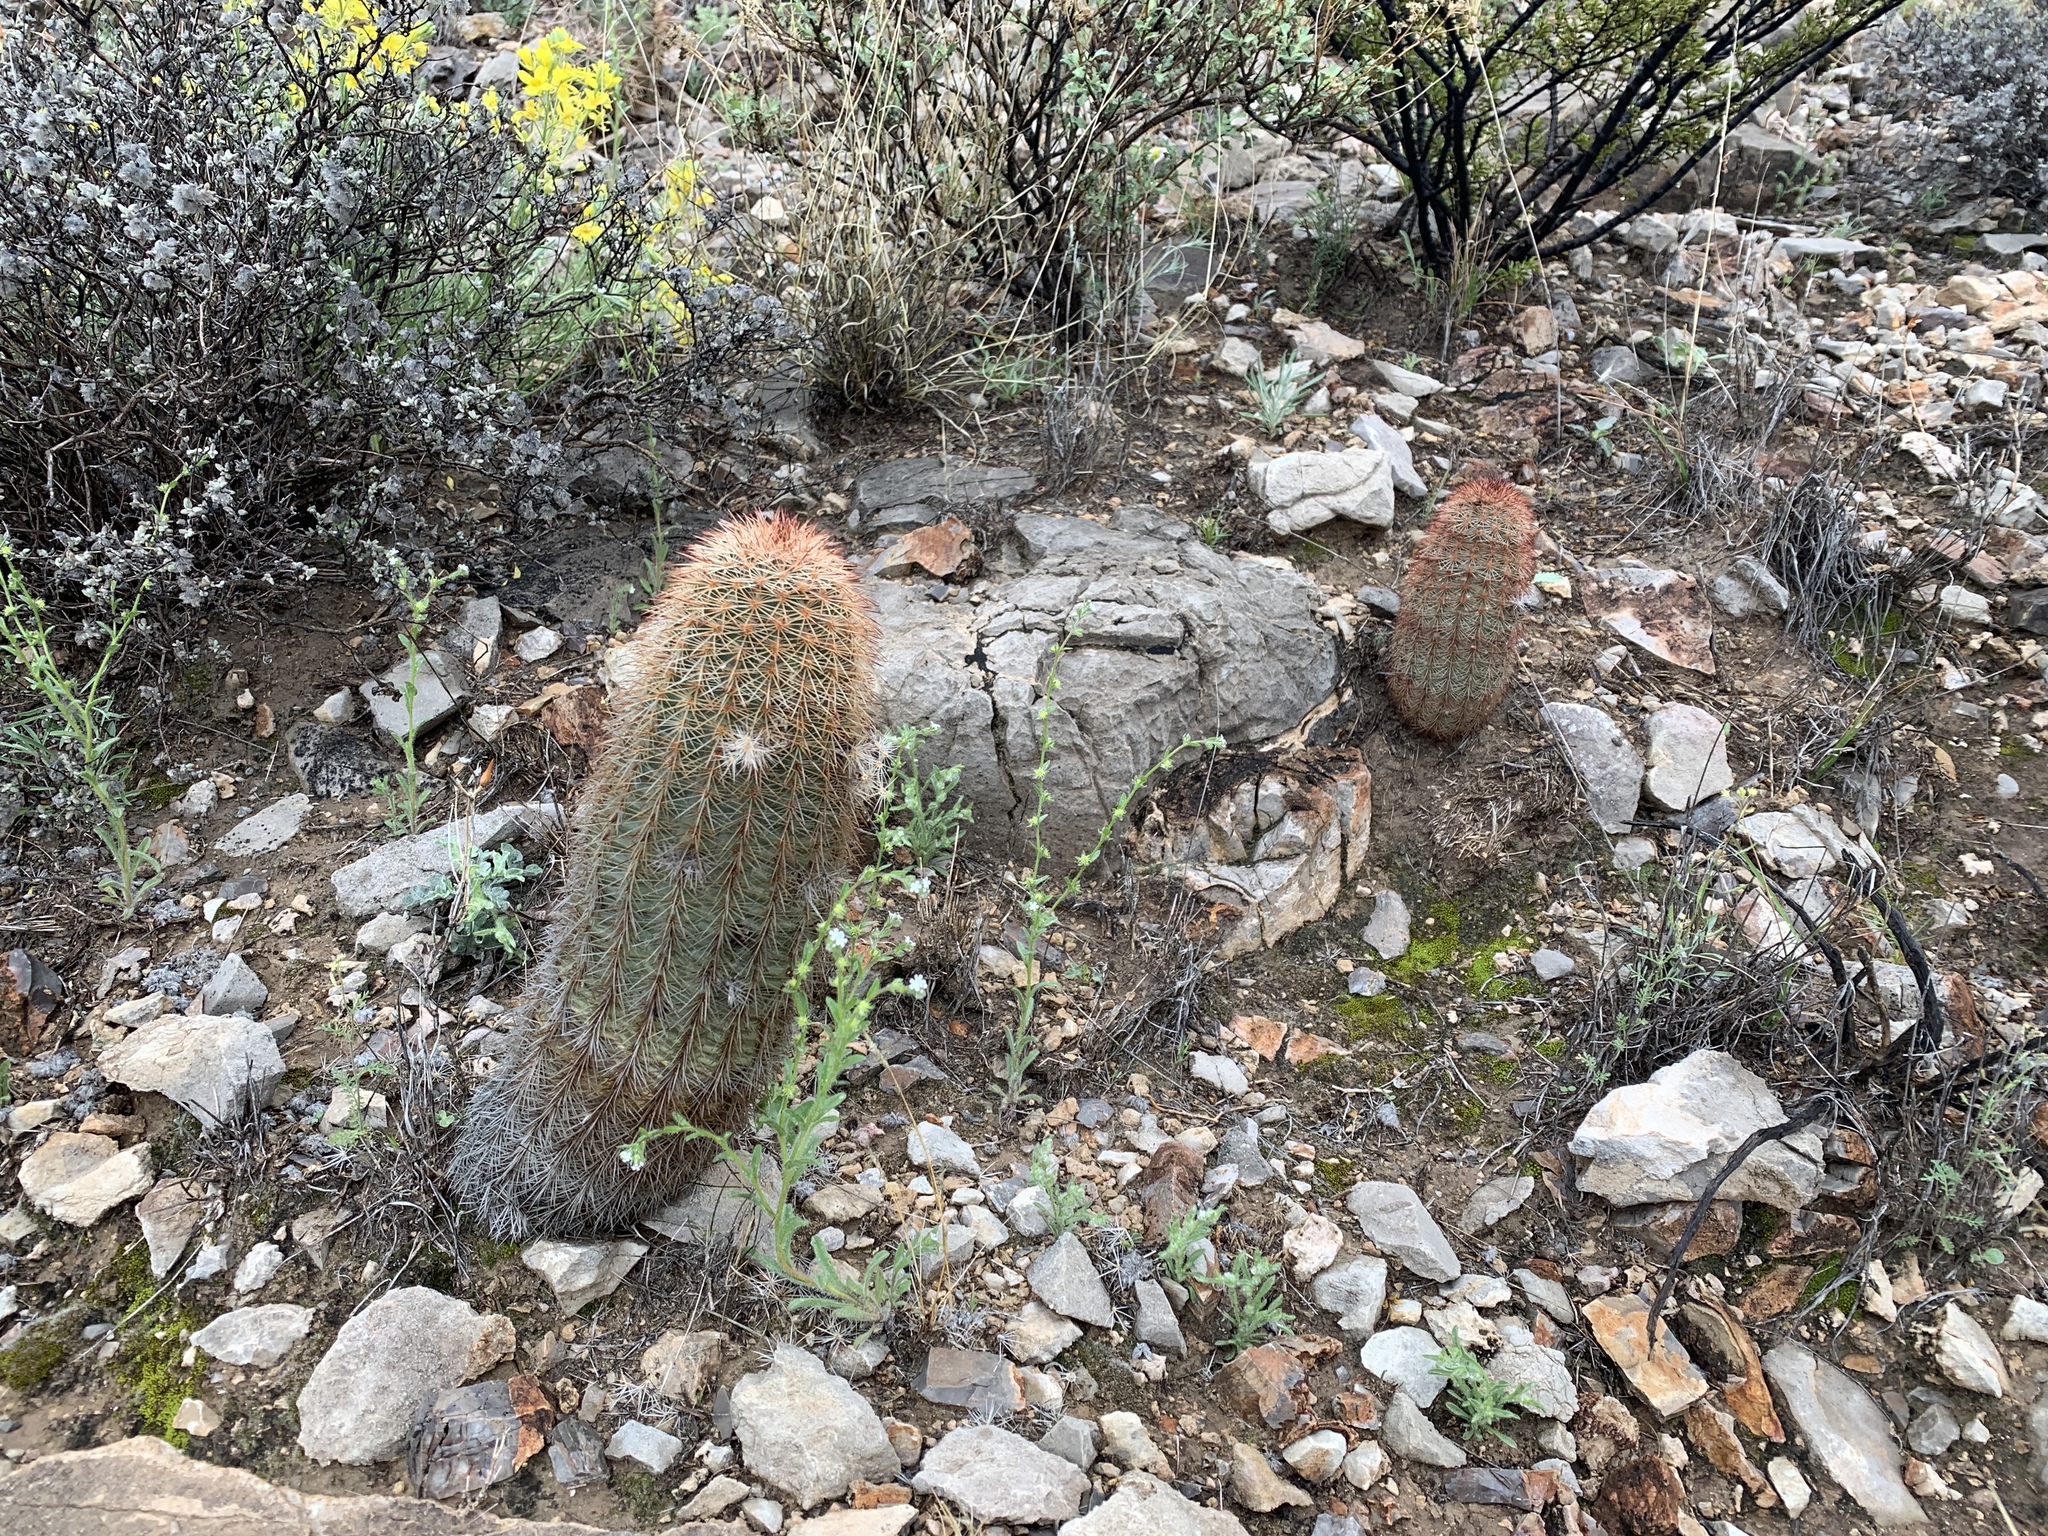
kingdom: Plantae
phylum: Tracheophyta
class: Magnoliopsida
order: Caryophyllales
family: Cactaceae
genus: Echinocereus
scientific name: Echinocereus dasyacanthus
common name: Spiny hedgehog cactus
